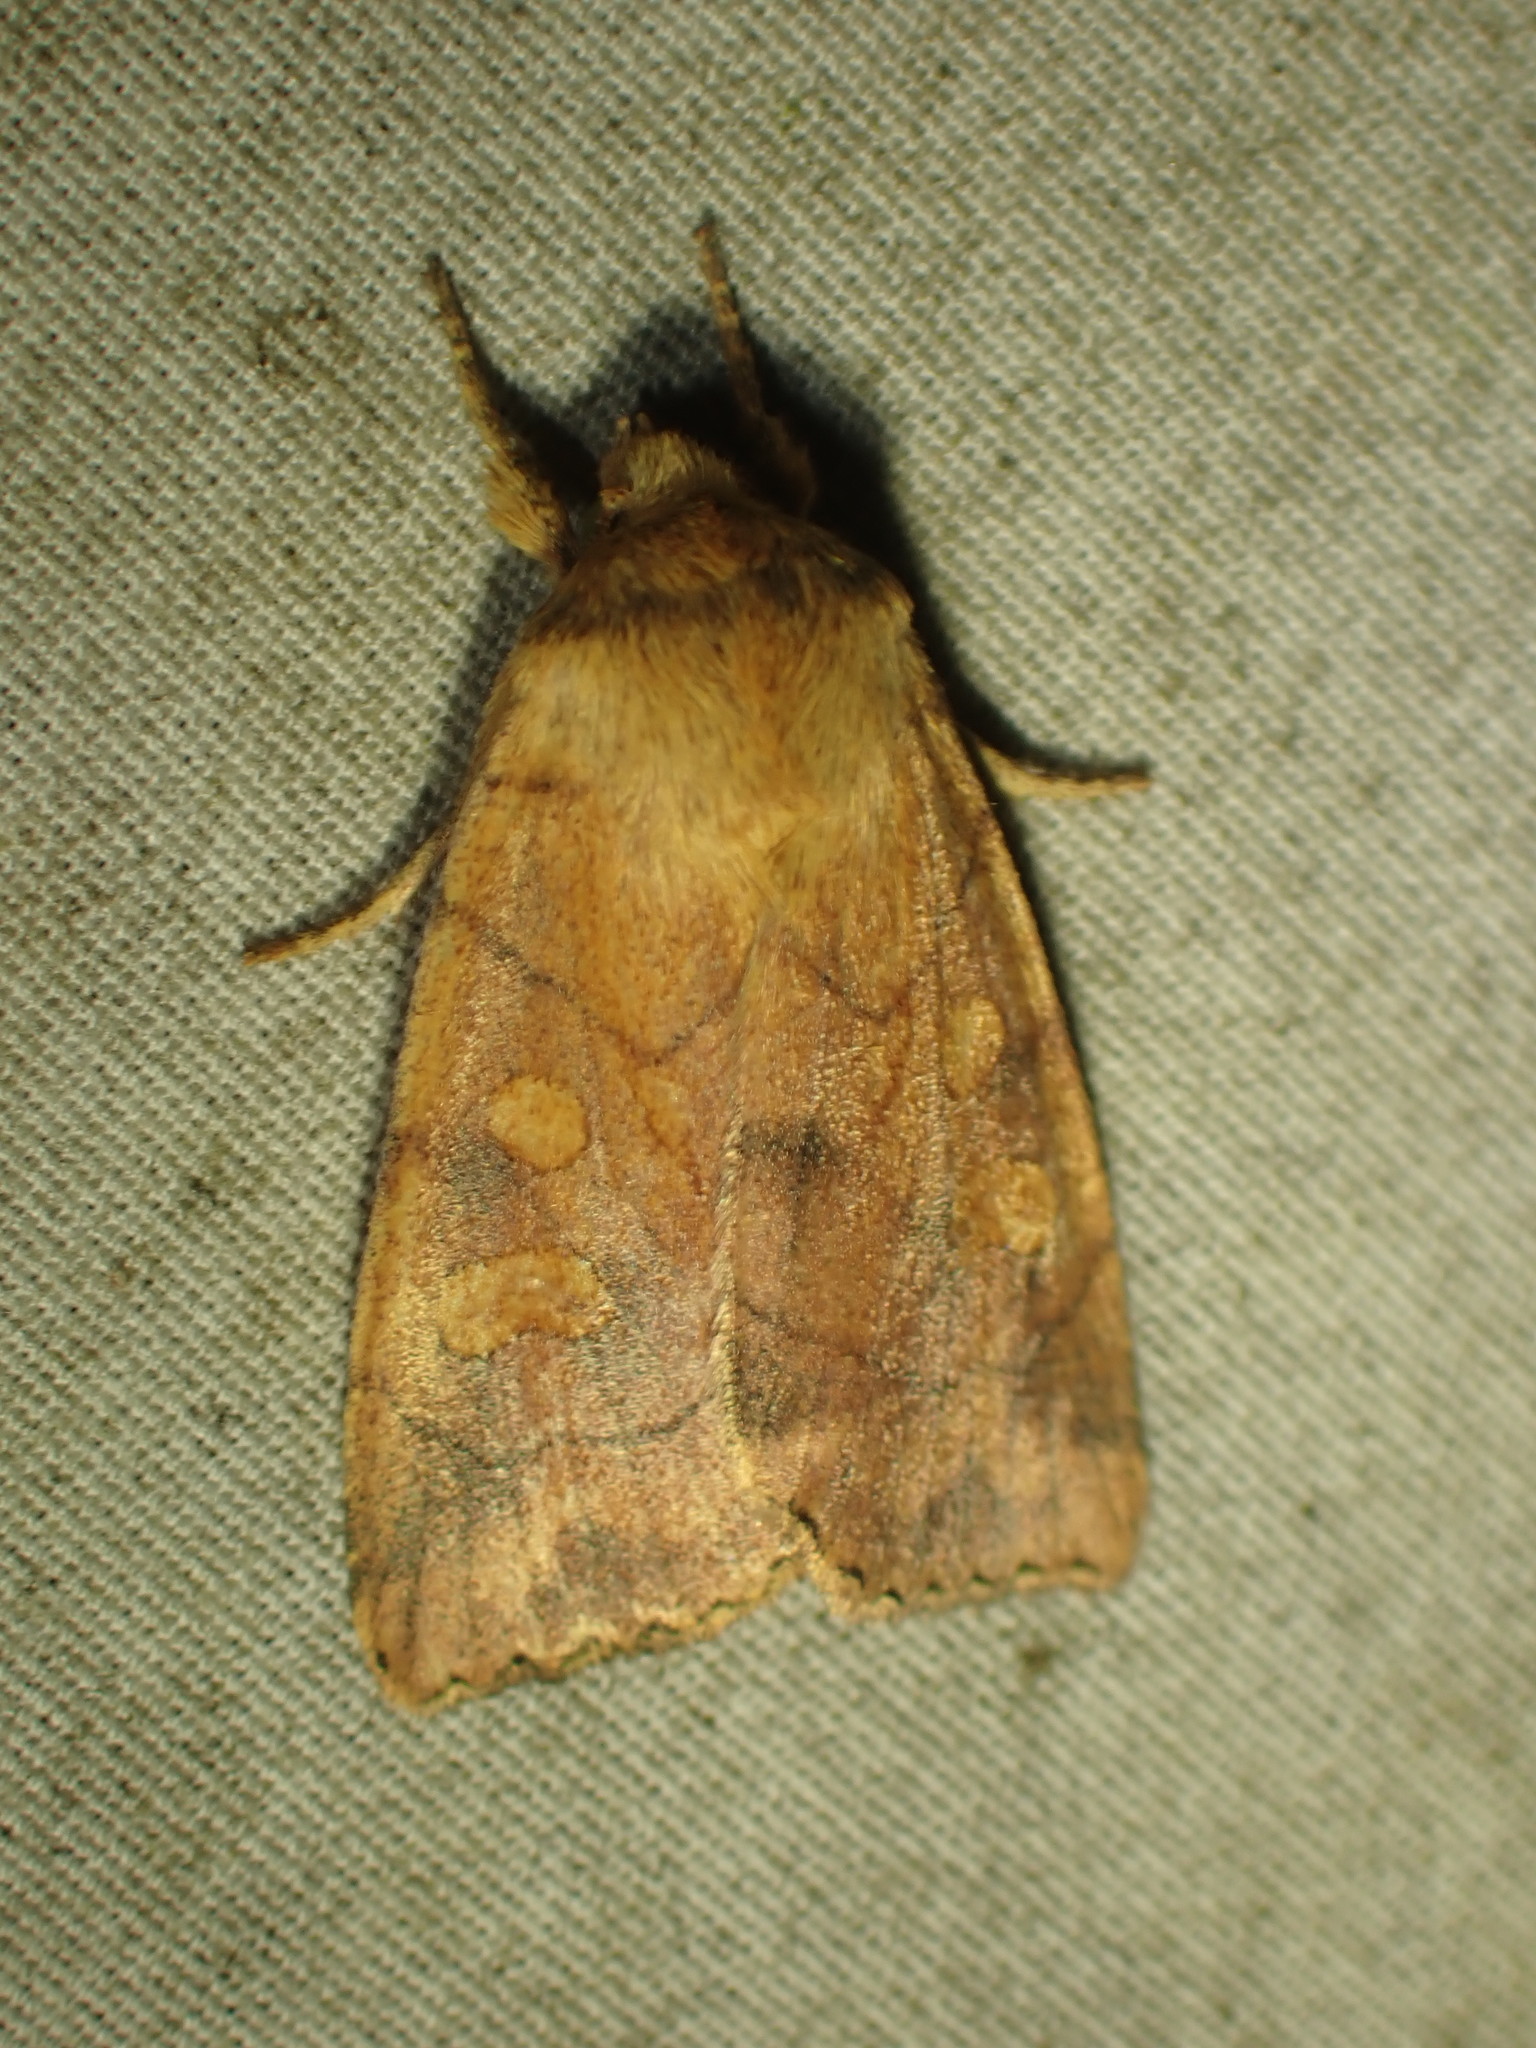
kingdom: Animalia
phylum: Arthropoda
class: Insecta
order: Lepidoptera
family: Noctuidae
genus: Enargia
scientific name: Enargia decolor
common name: Aspen twoleaf tier moth
